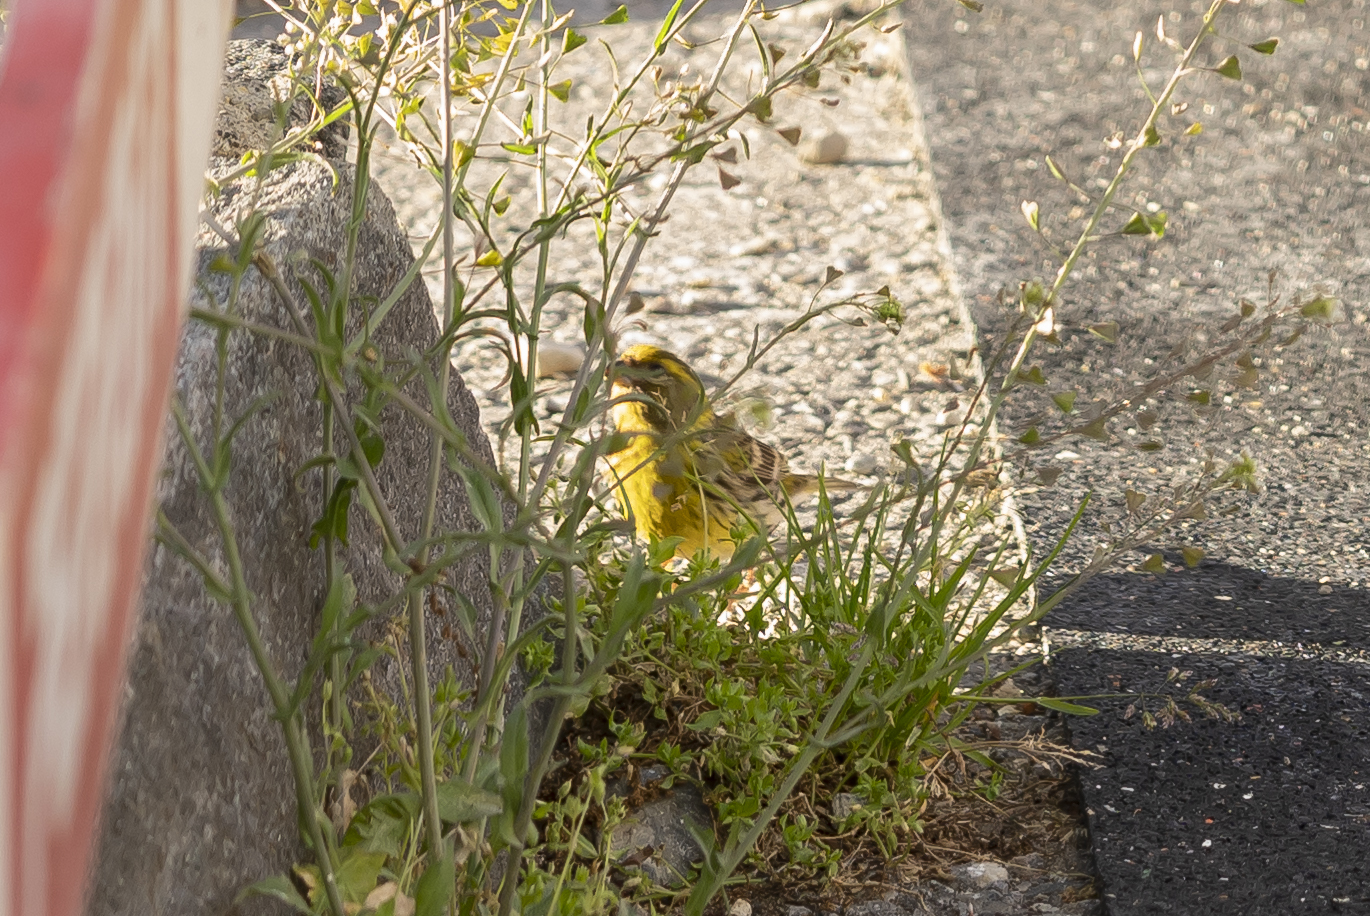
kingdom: Animalia
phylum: Chordata
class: Aves
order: Passeriformes
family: Fringillidae
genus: Serinus
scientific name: Serinus serinus
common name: European serin
